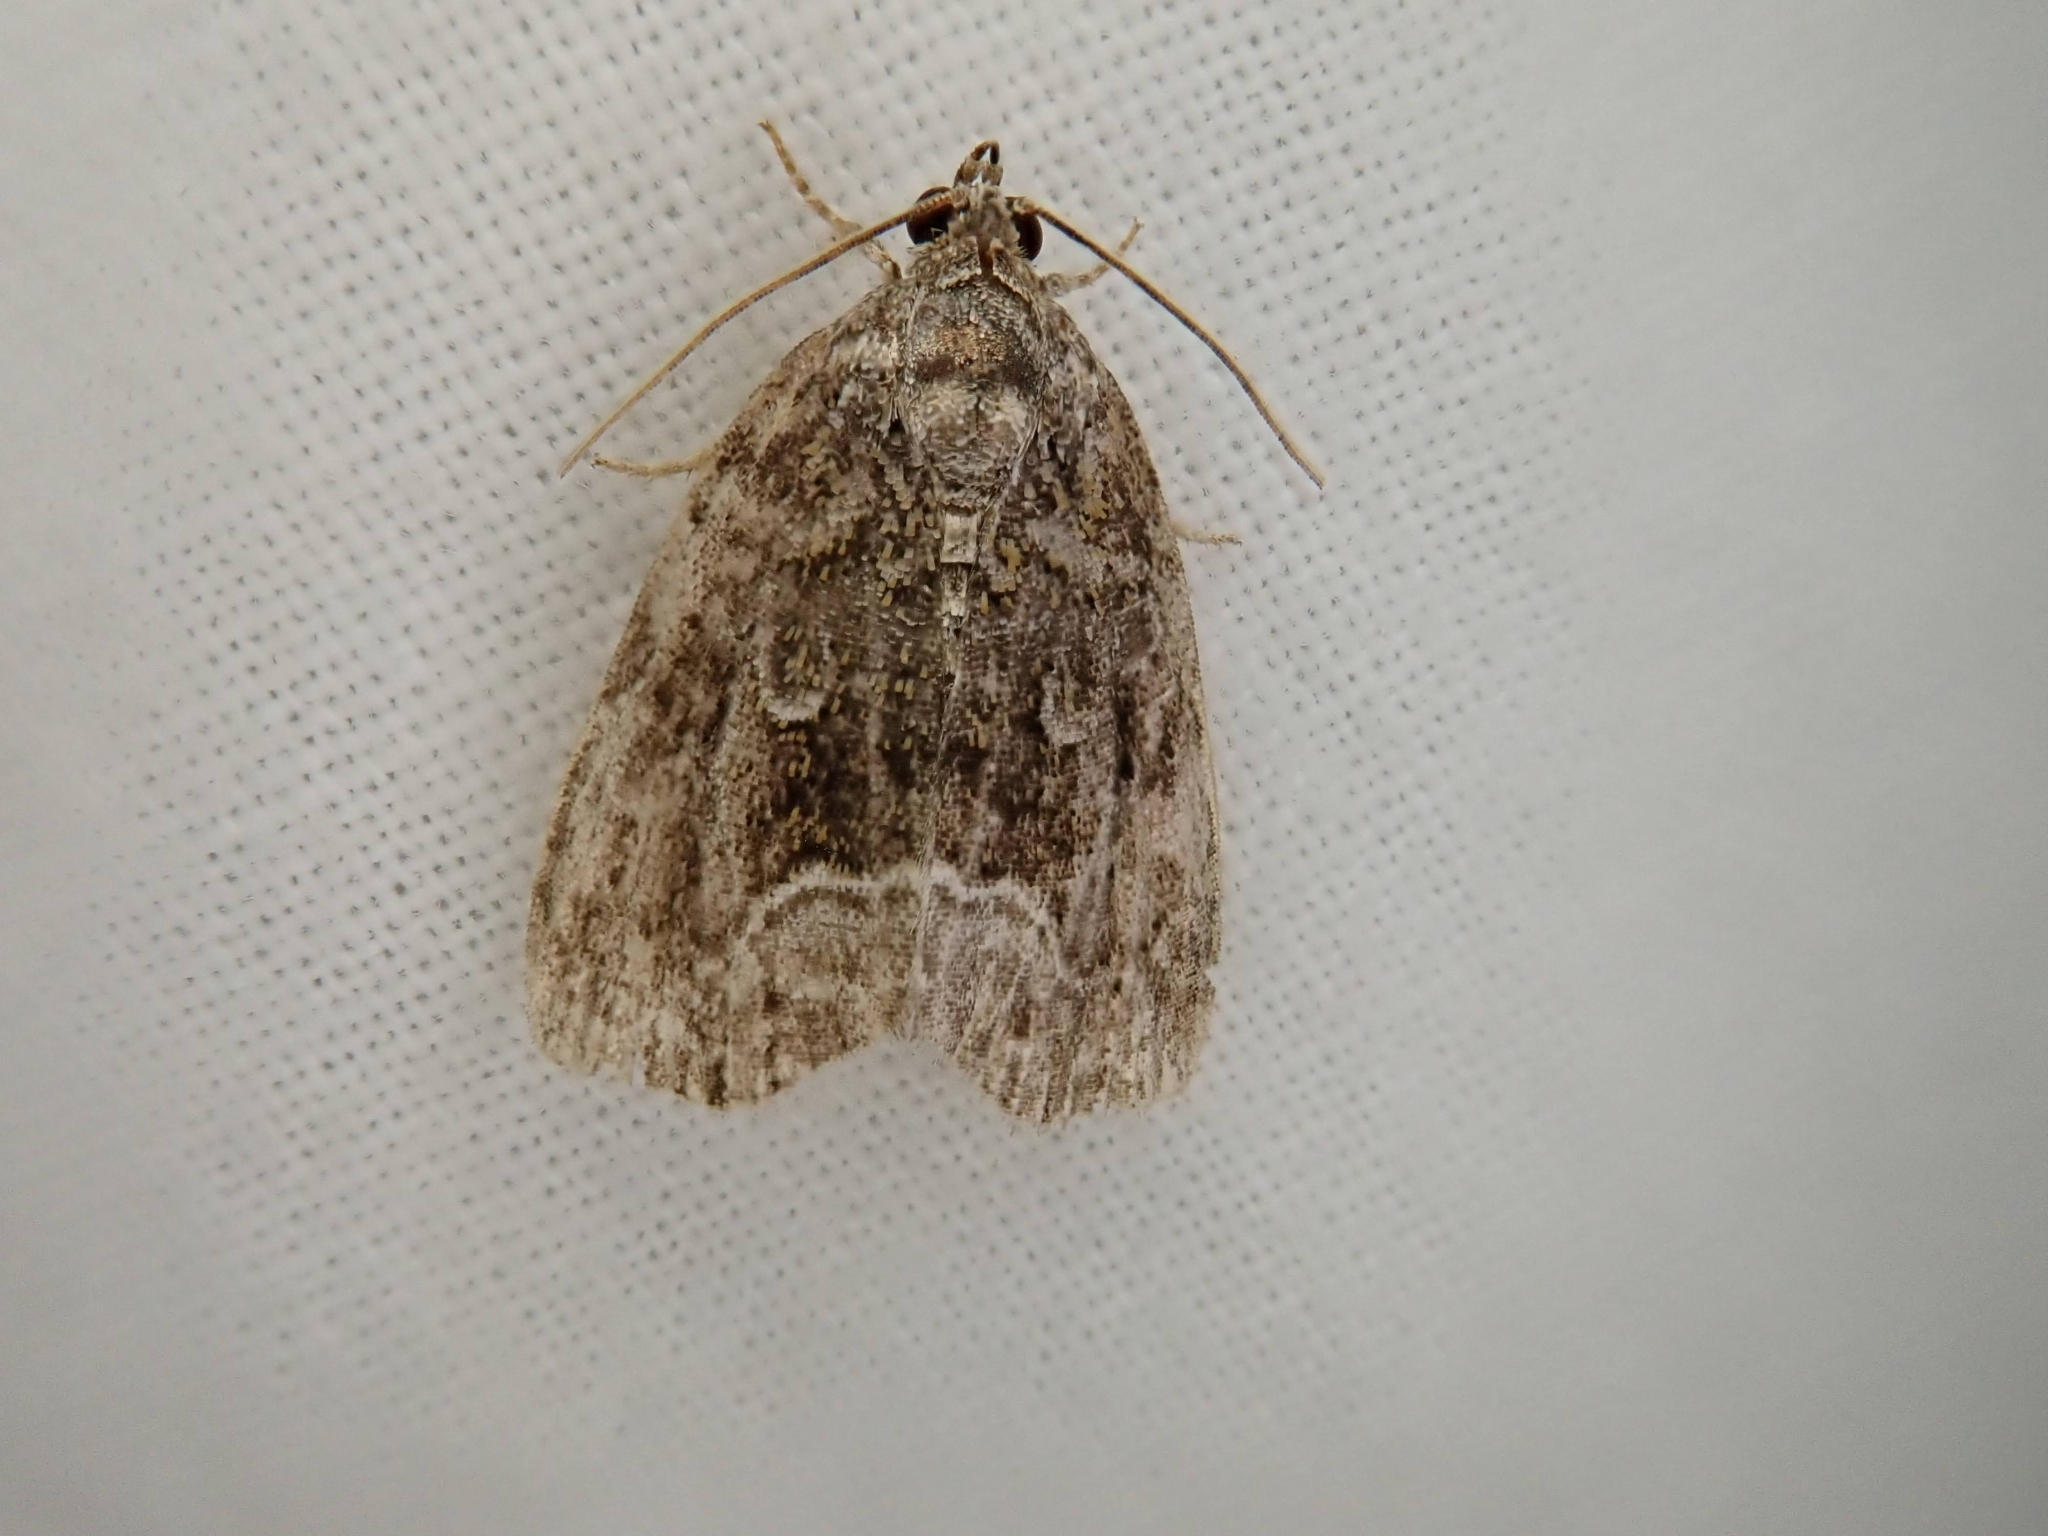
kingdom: Animalia
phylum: Arthropoda
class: Insecta
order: Lepidoptera
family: Noctuidae
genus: Protodeltote
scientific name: Protodeltote muscosula
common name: Large mossy glyph
